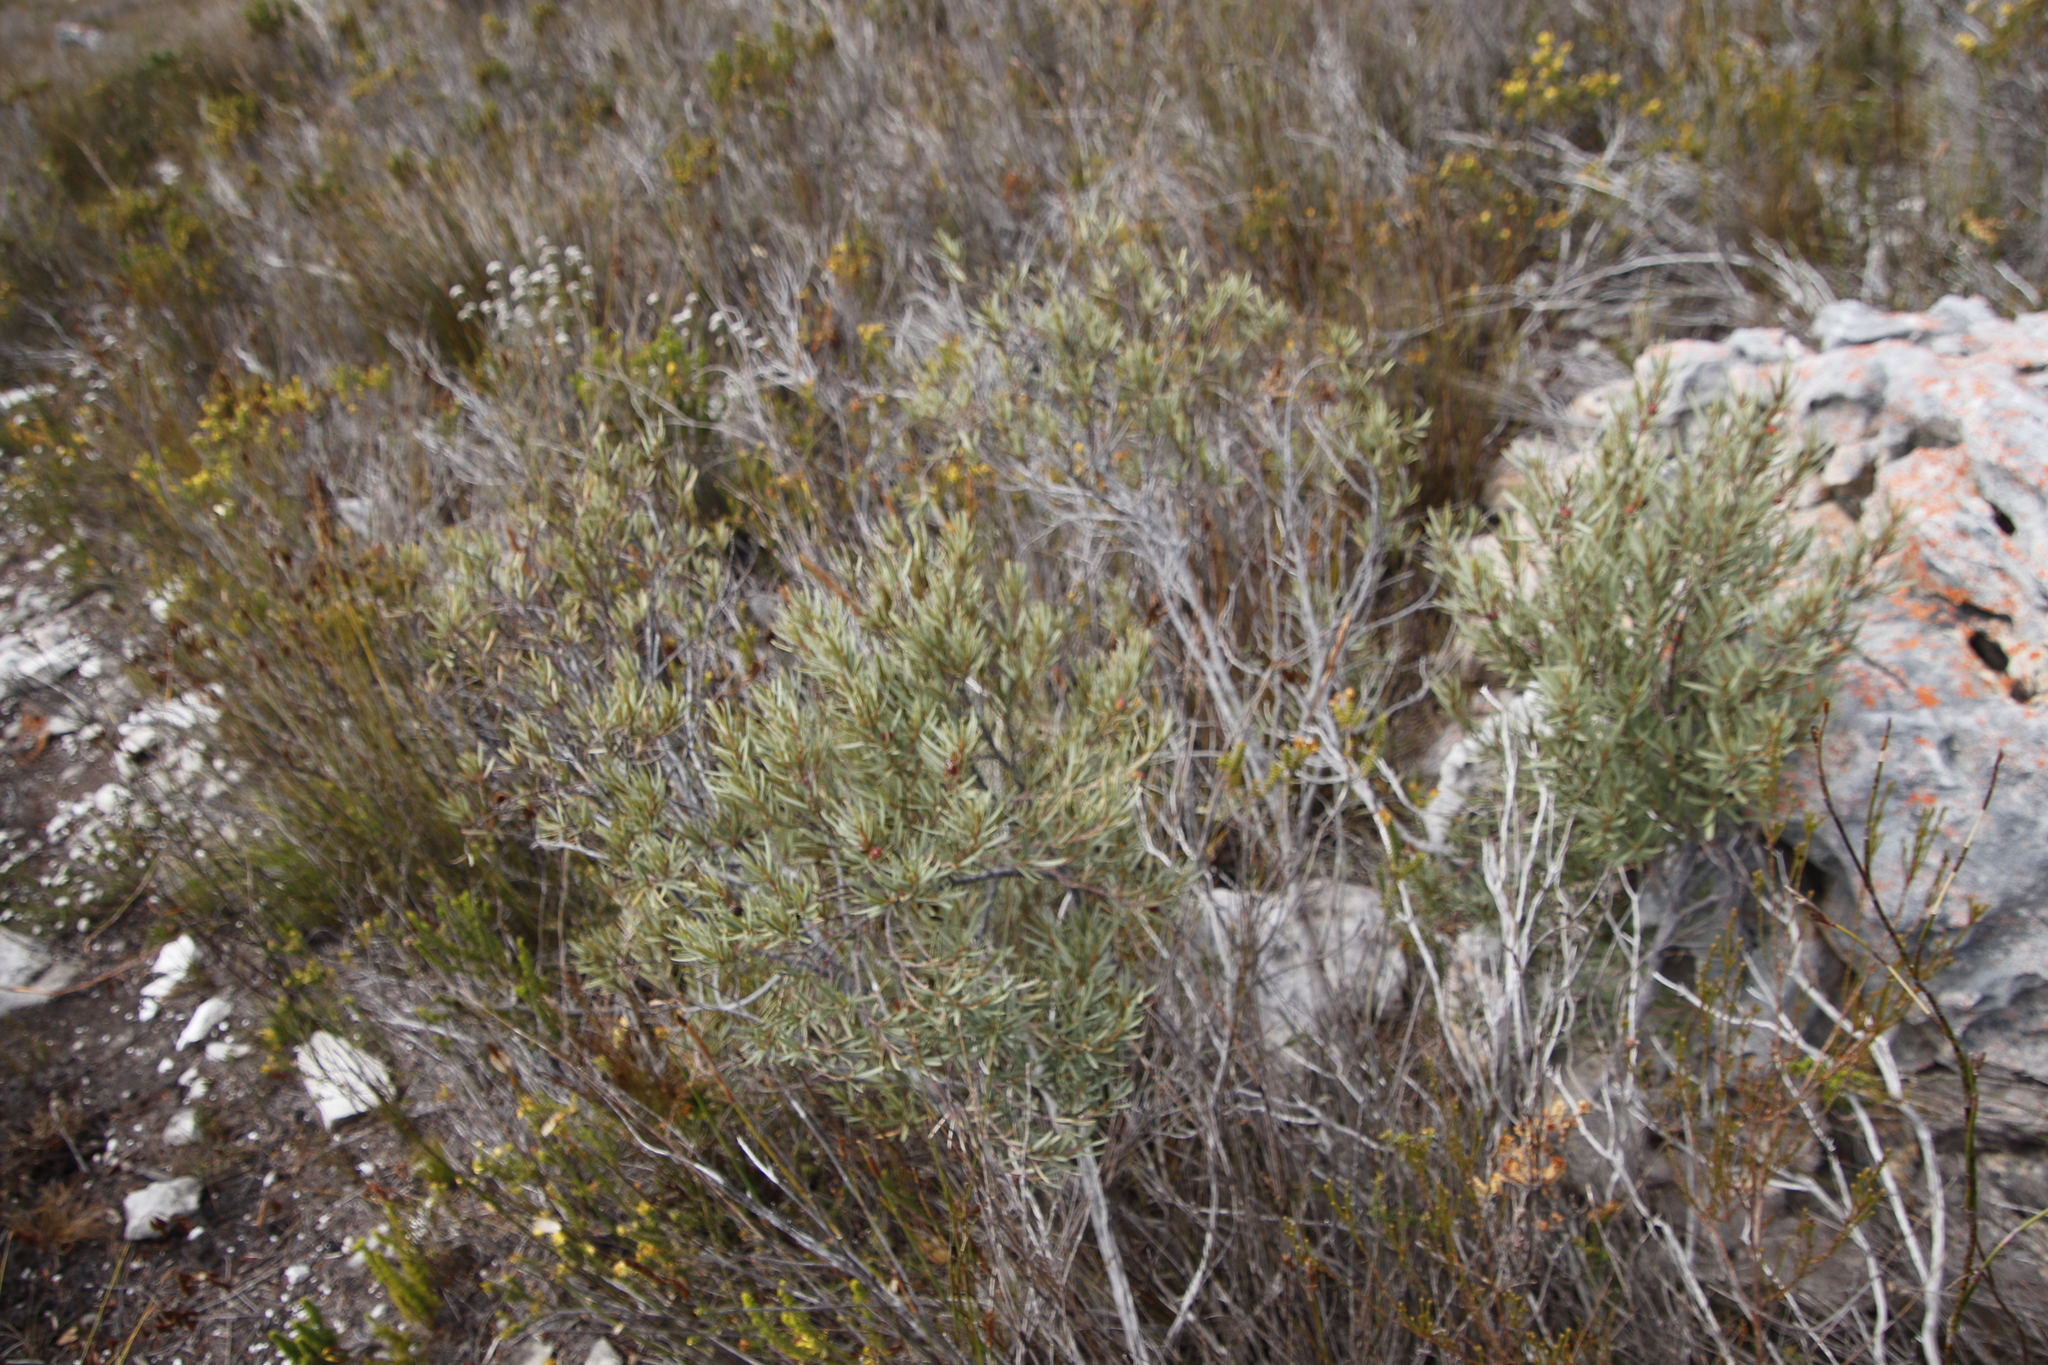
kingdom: Plantae
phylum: Tracheophyta
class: Magnoliopsida
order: Cornales
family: Grubbiaceae
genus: Grubbia
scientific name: Grubbia tomentosa
